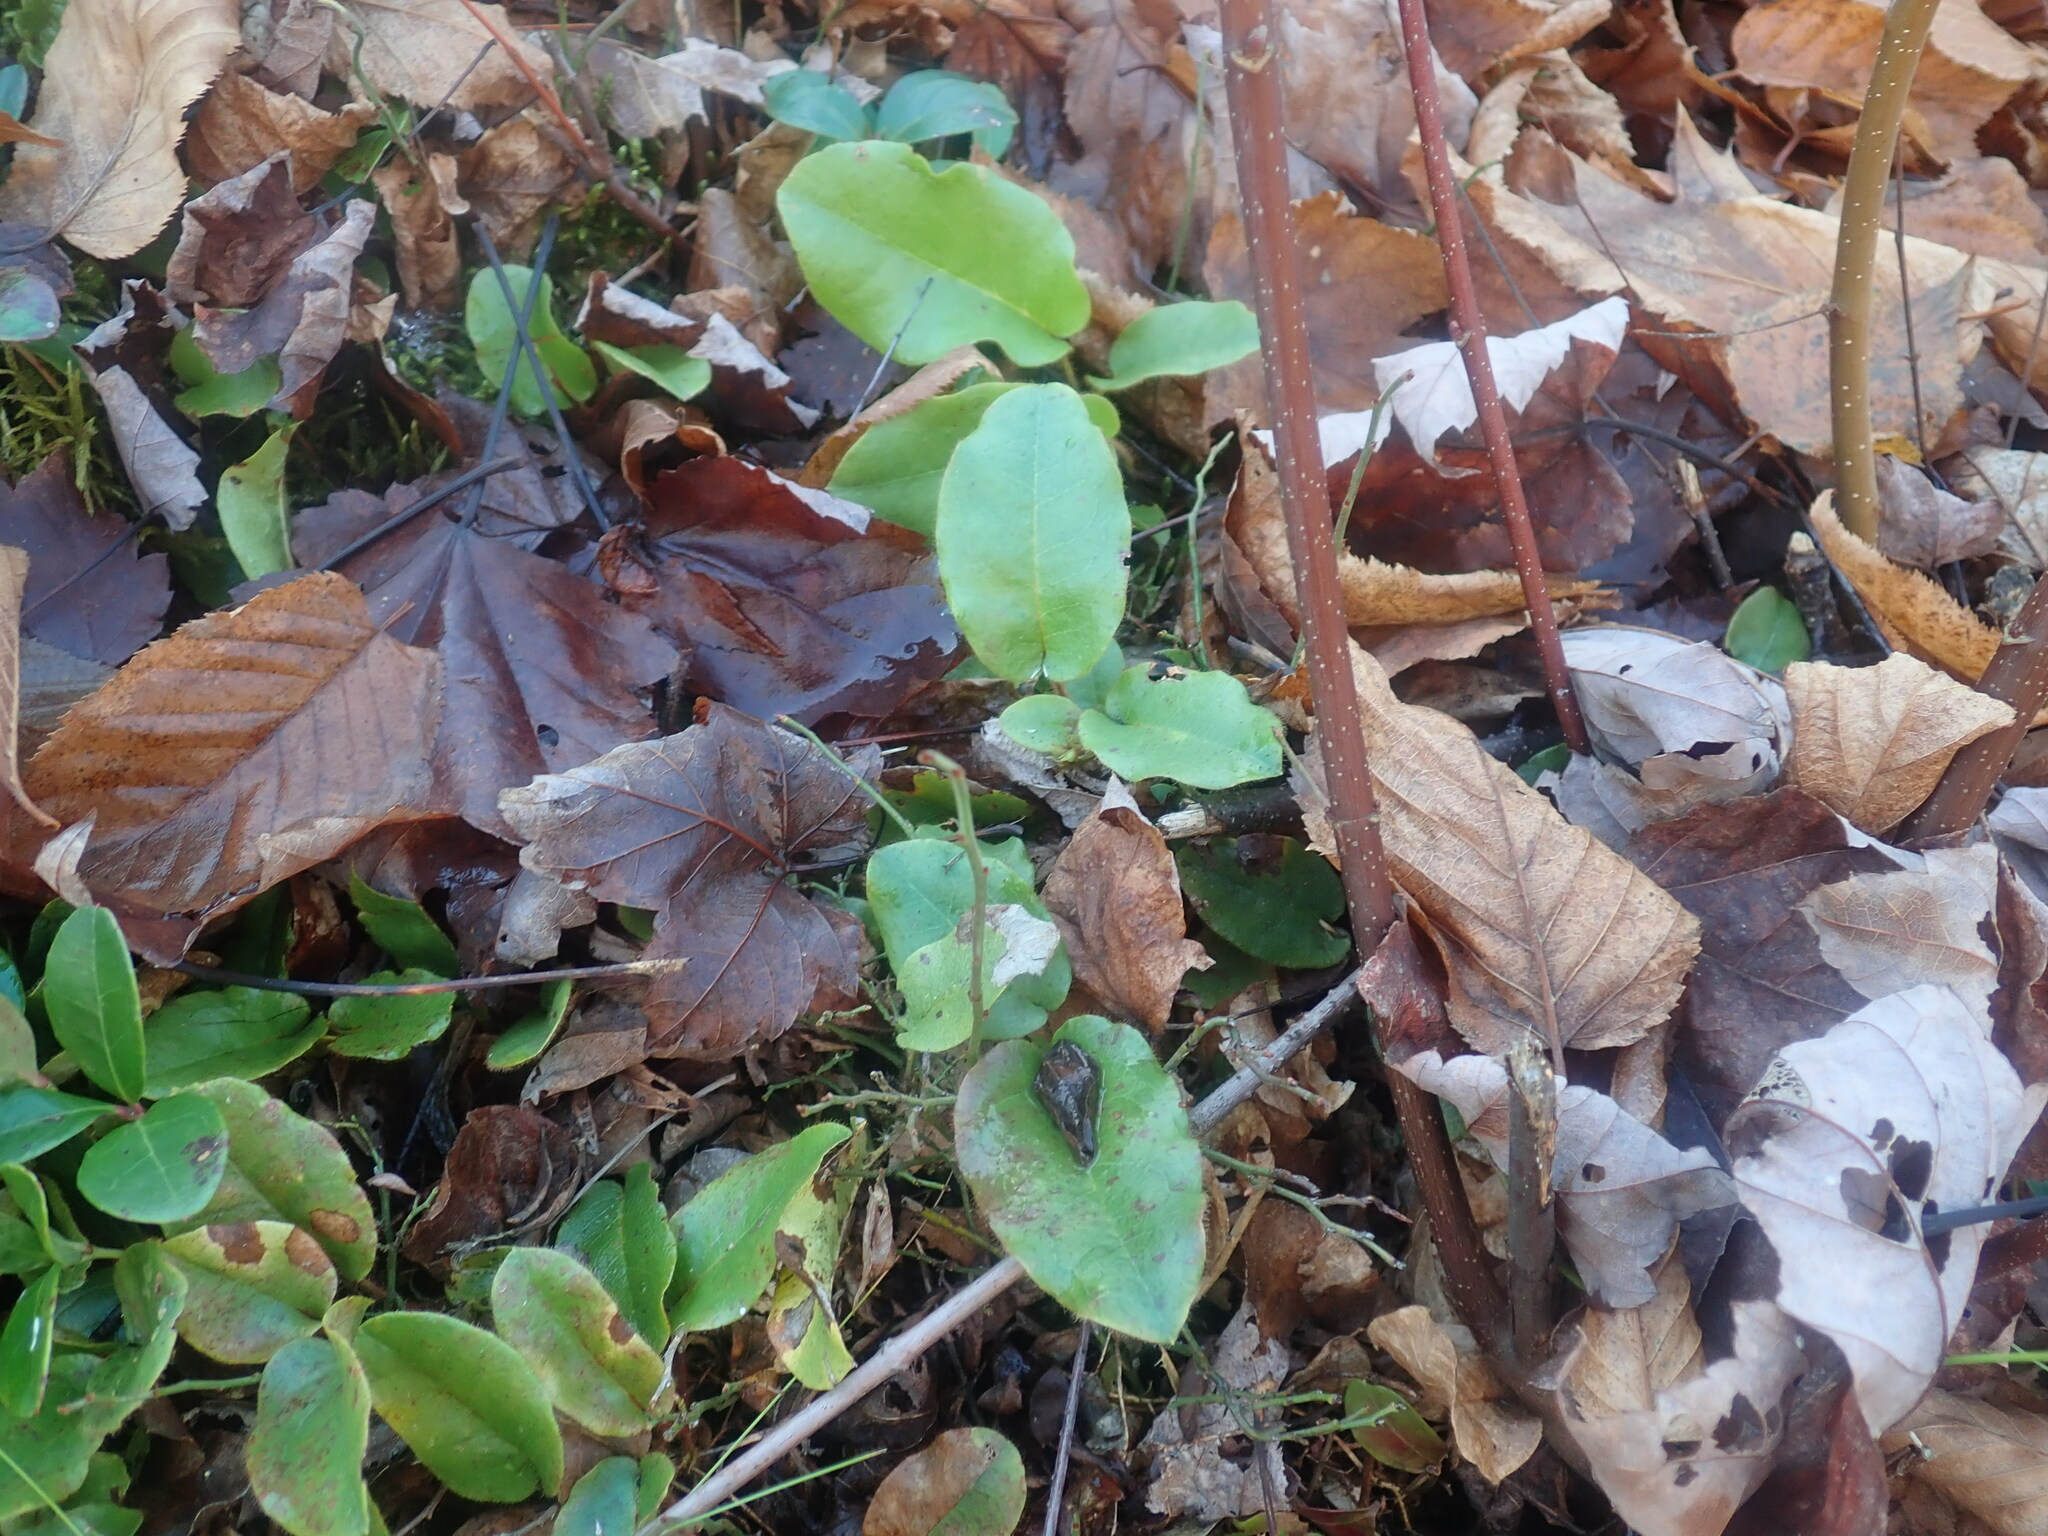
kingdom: Plantae
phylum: Tracheophyta
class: Magnoliopsida
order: Ericales
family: Ericaceae
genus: Epigaea
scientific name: Epigaea repens
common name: Gravelroot
